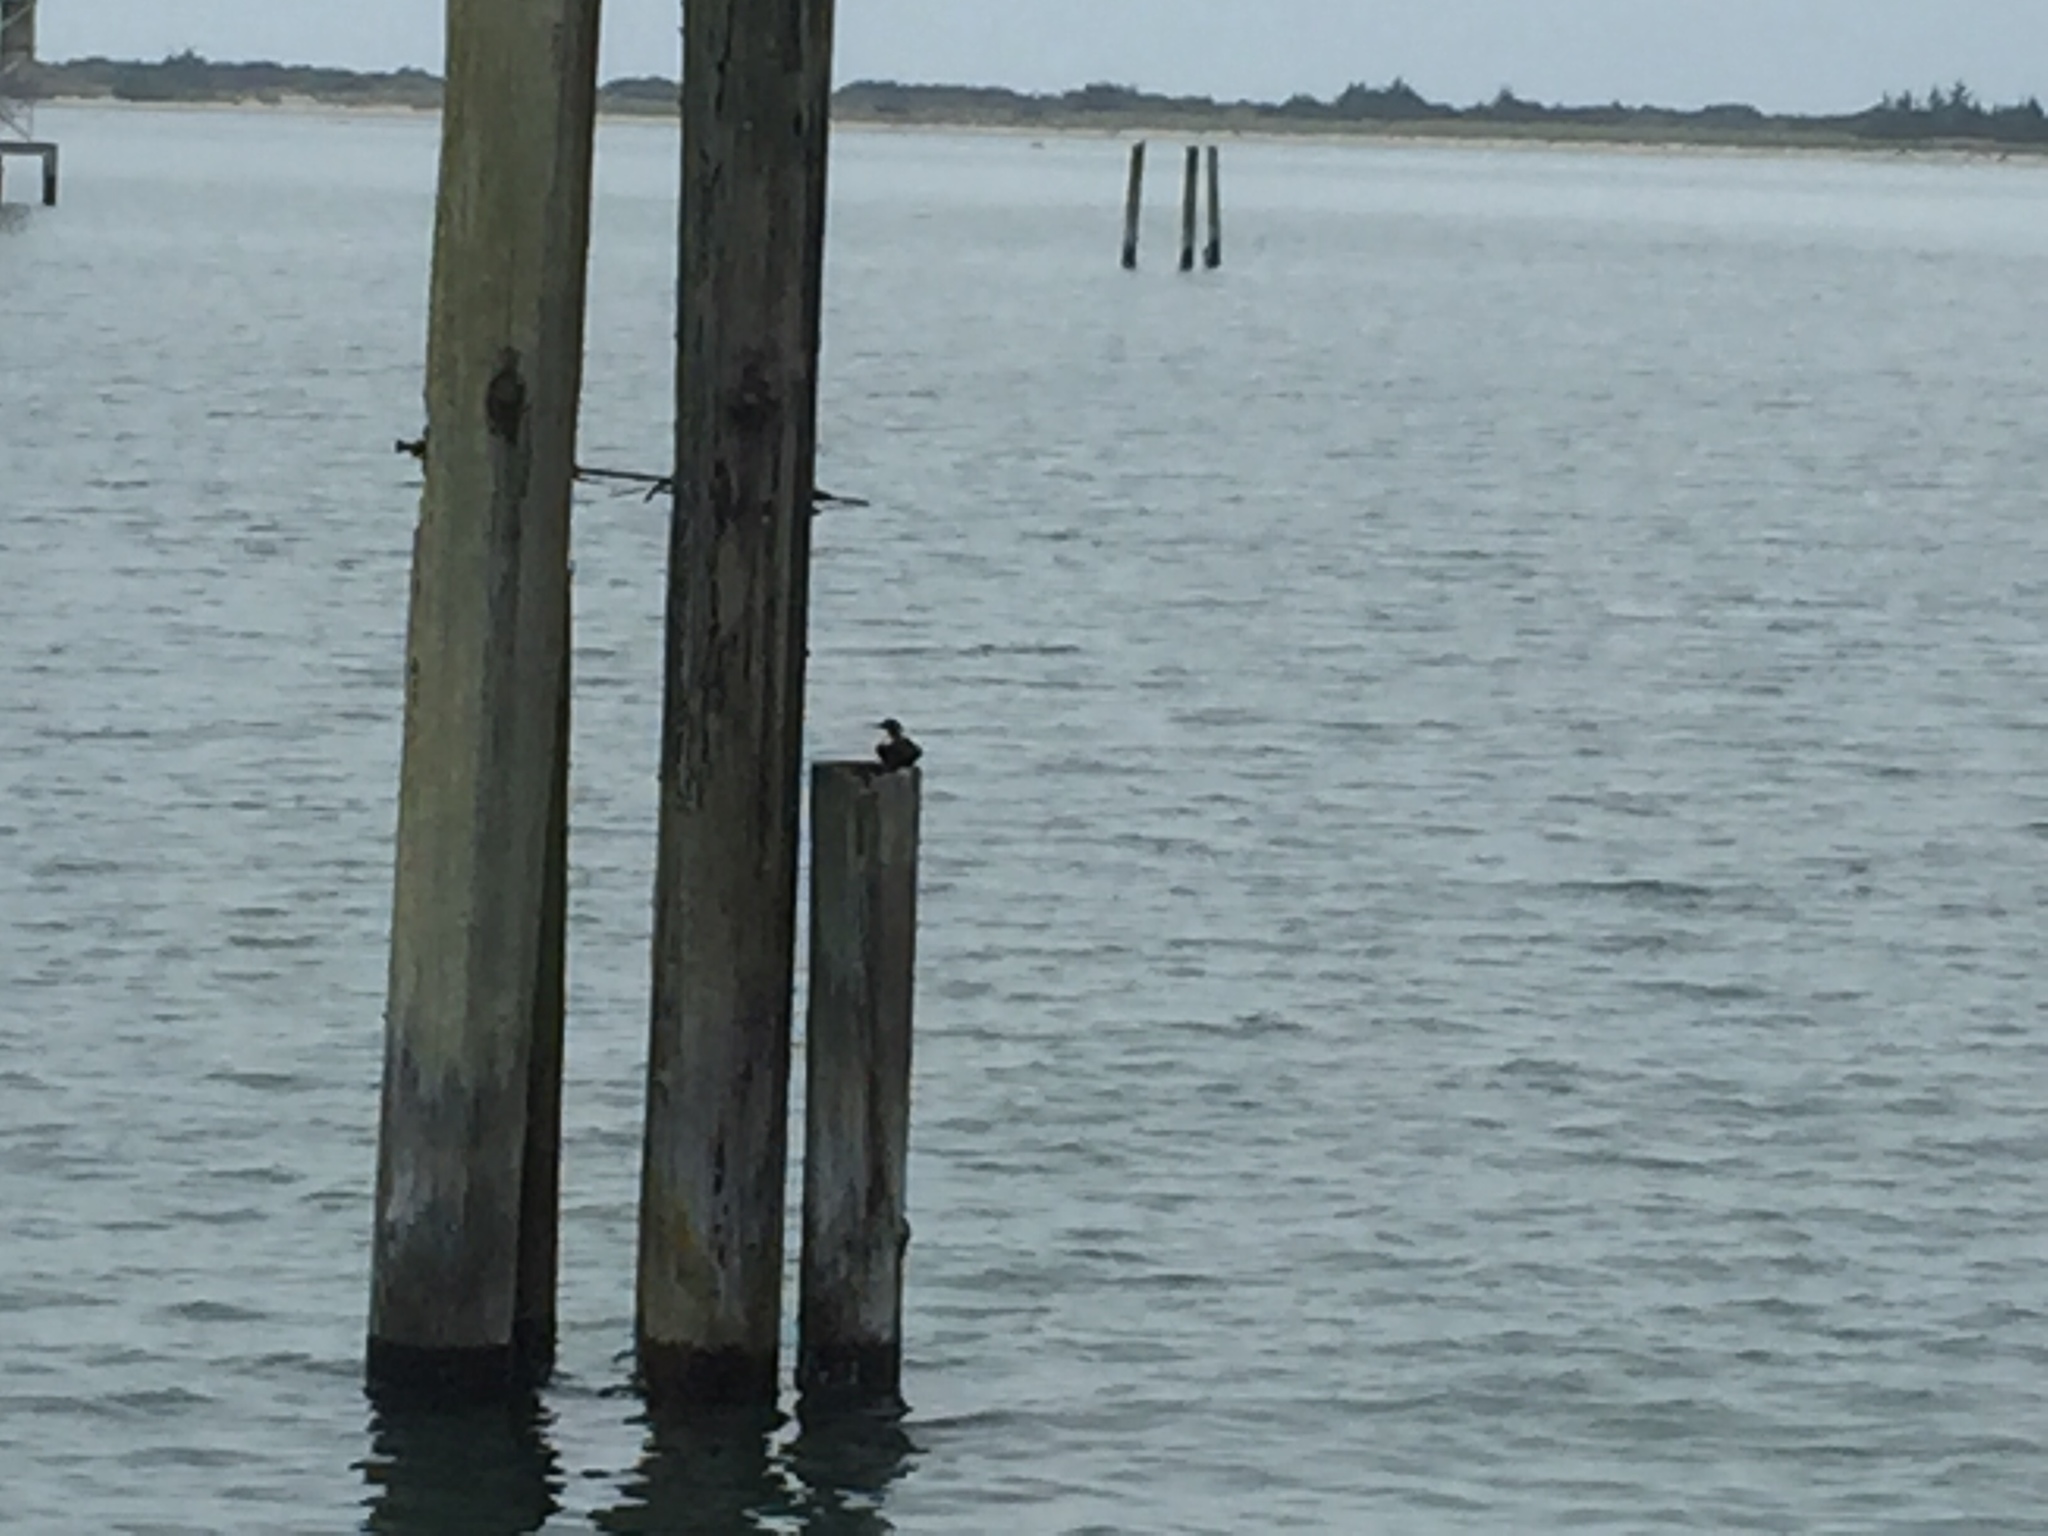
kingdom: Animalia
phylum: Chordata
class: Aves
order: Charadriiformes
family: Alcidae
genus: Cepphus
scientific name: Cepphus columba
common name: Pigeon guillemot
